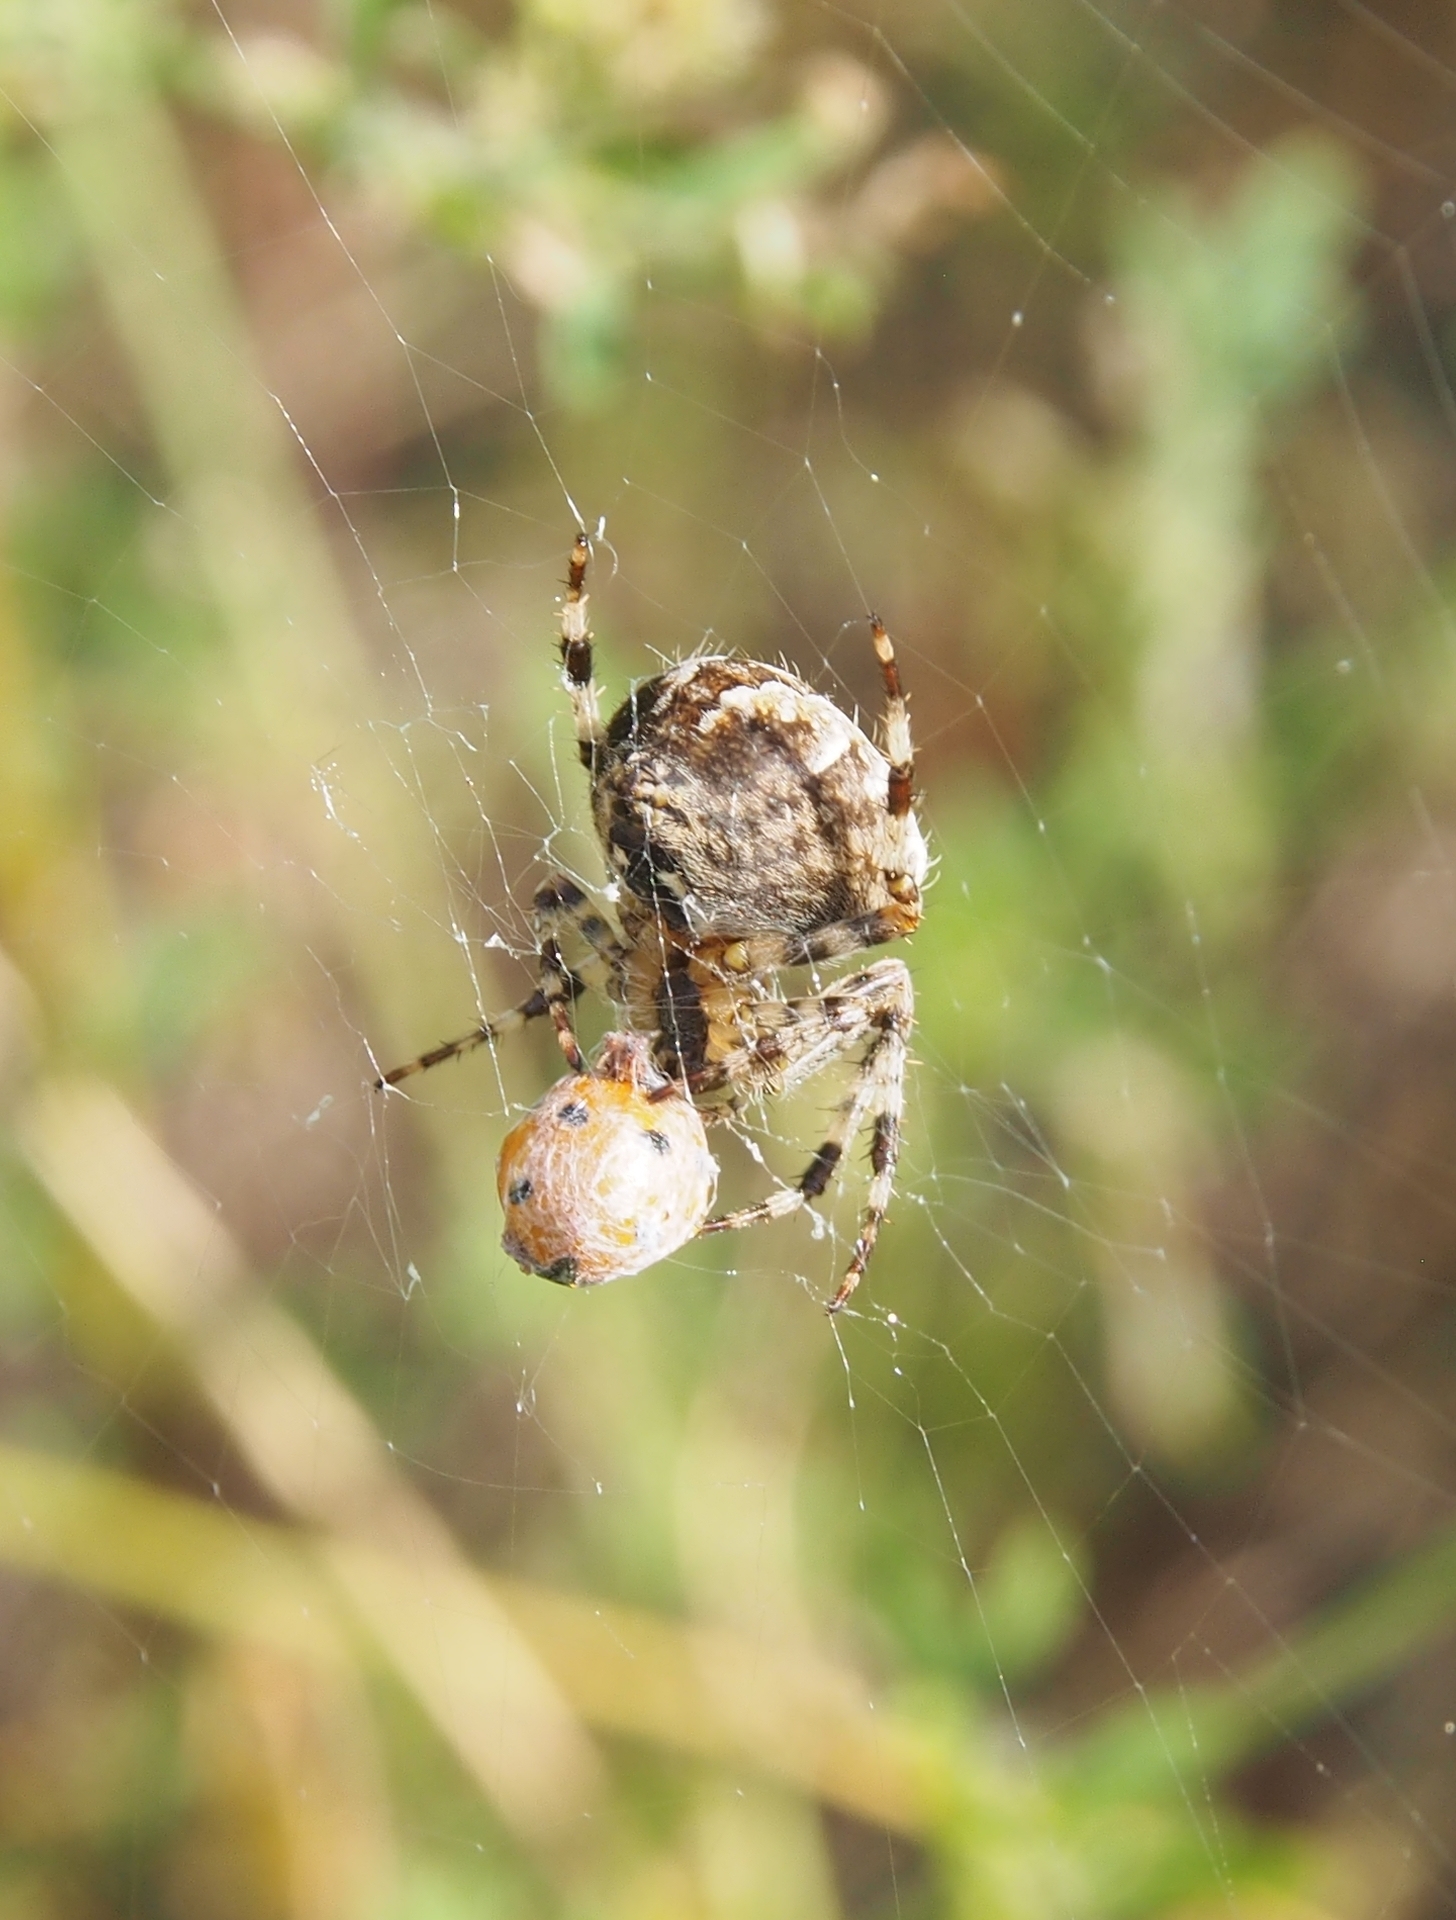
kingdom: Animalia
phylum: Arthropoda
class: Arachnida
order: Araneae
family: Araneidae
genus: Araneus
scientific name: Araneus diadematus
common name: Cross orbweaver
